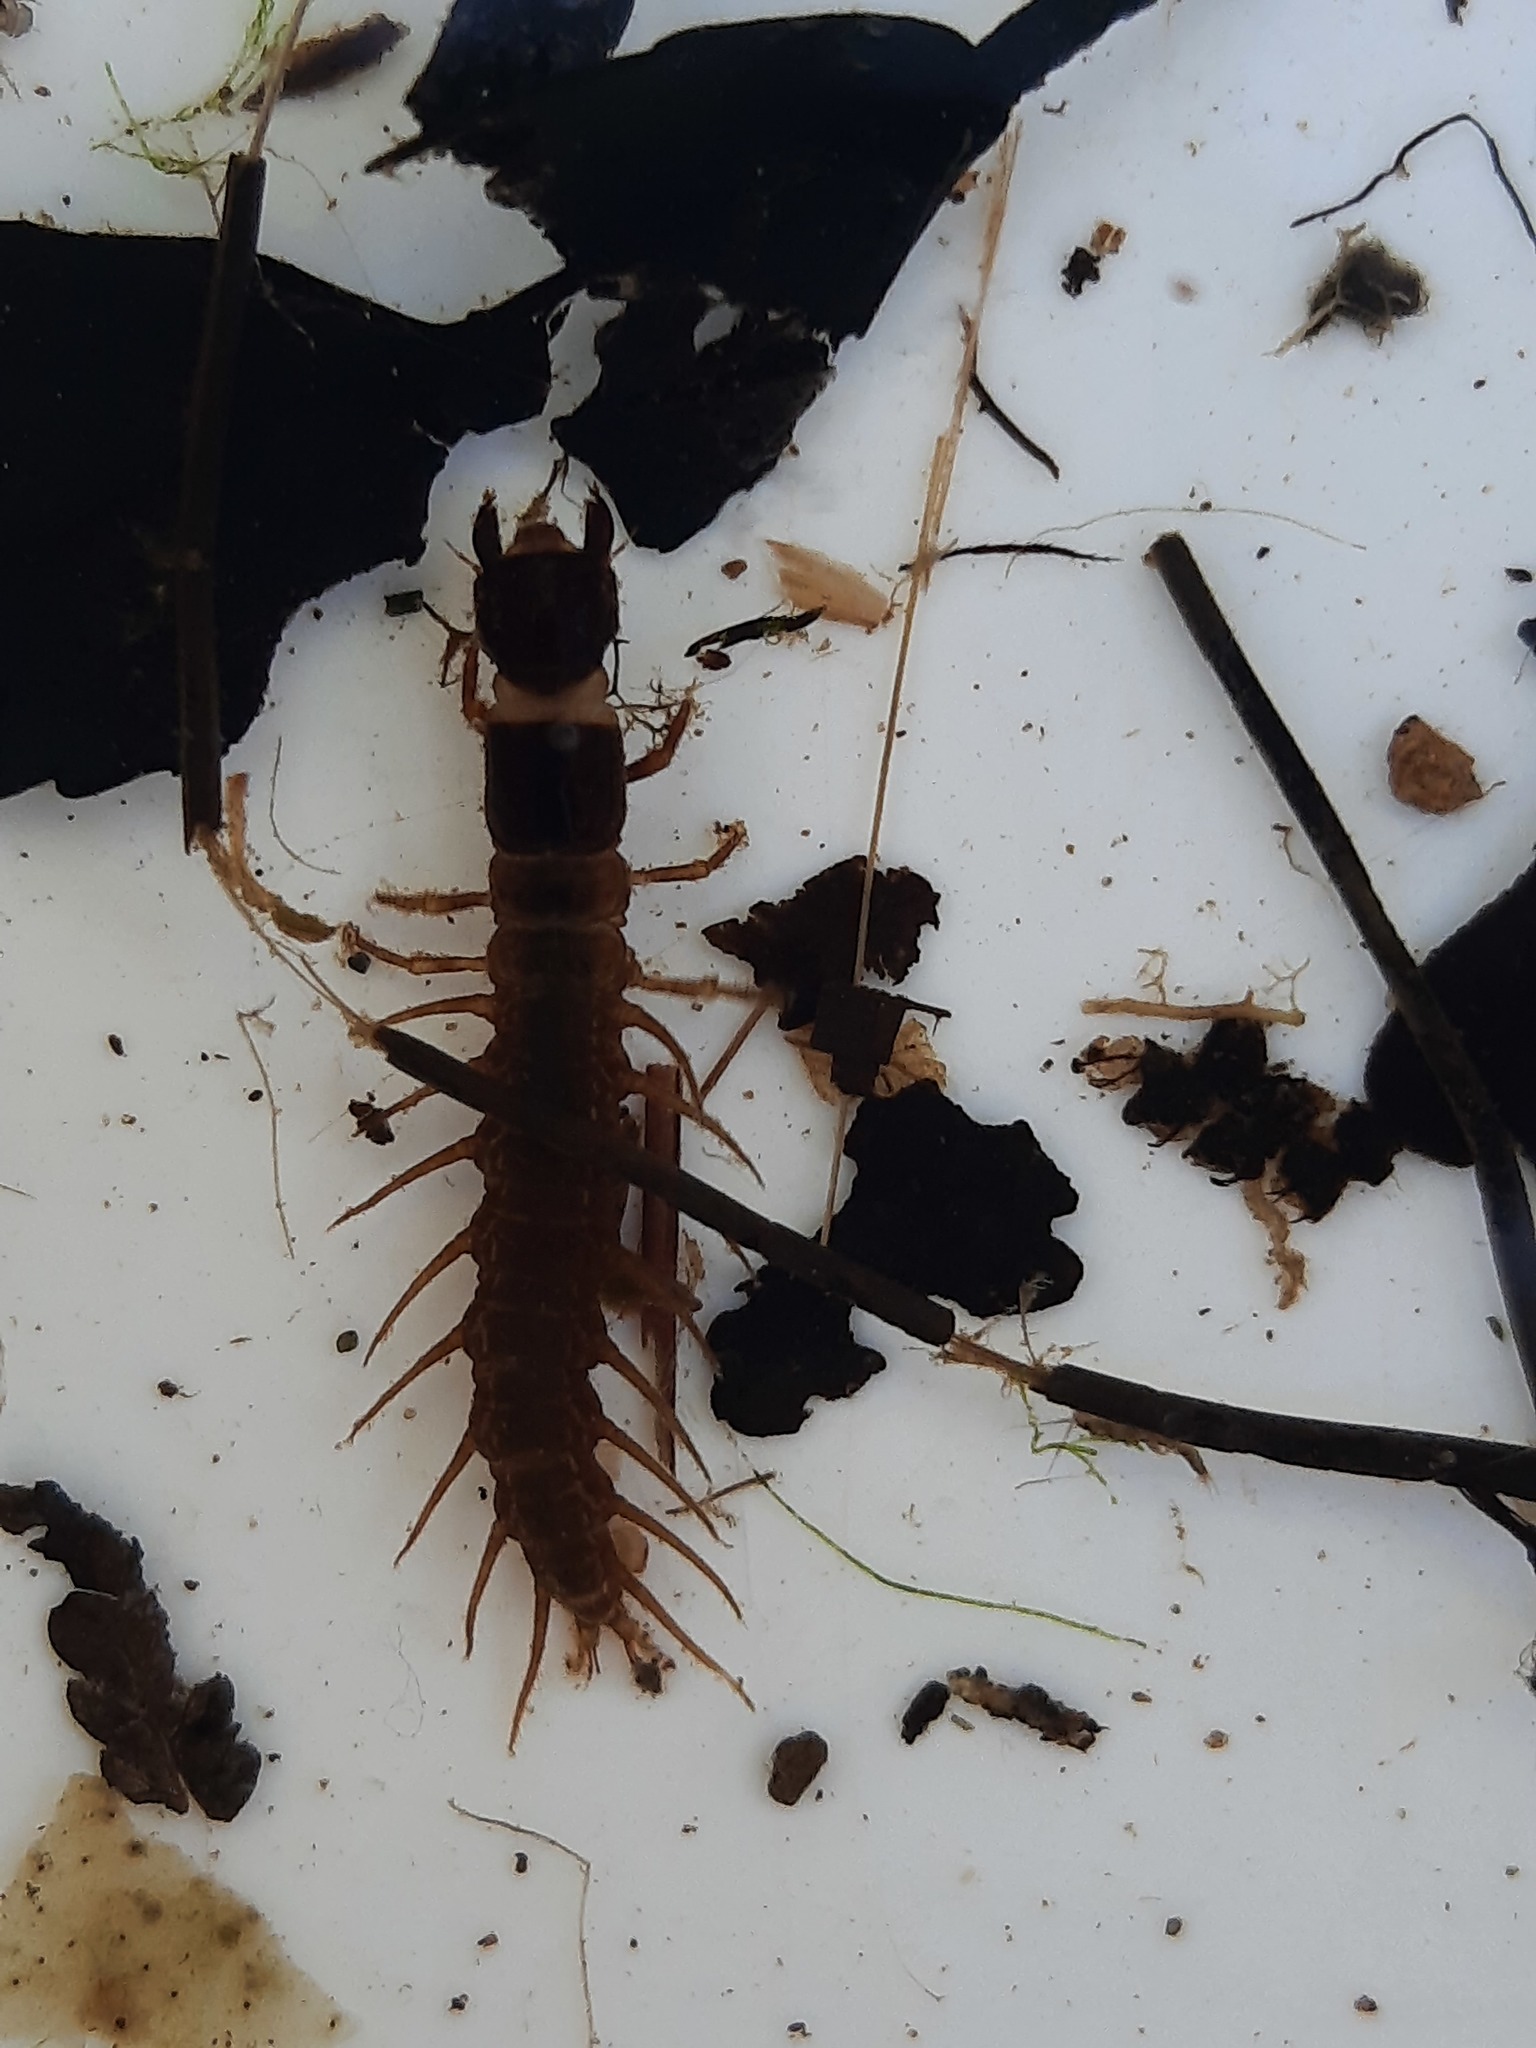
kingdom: Animalia
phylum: Arthropoda
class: Insecta
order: Megaloptera
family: Corydalidae
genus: Archichauliodes
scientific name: Archichauliodes diversus
